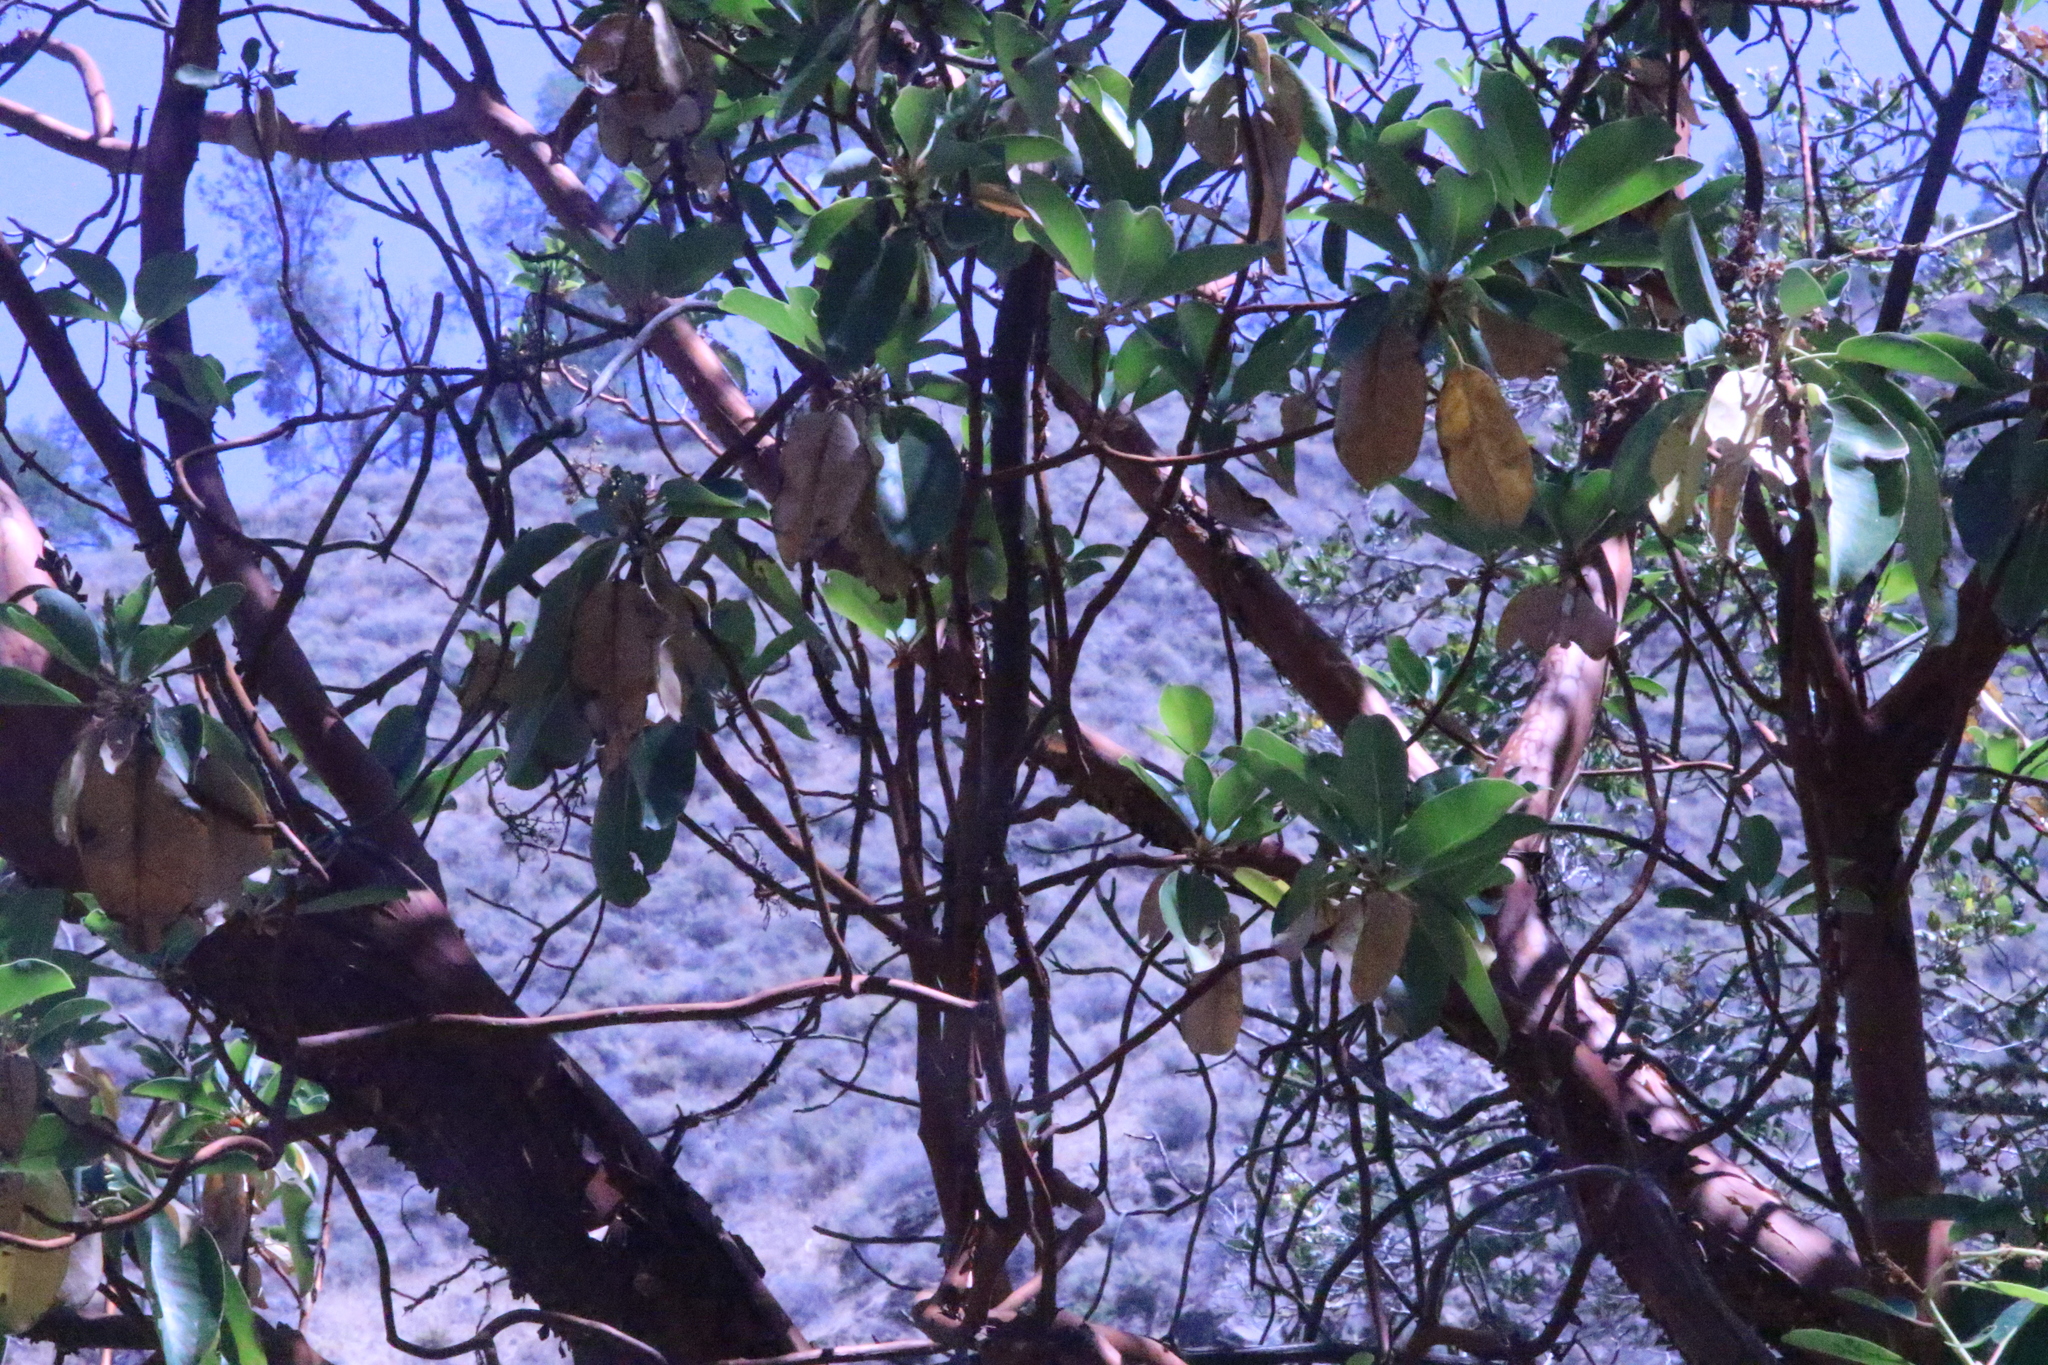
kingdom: Plantae
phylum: Tracheophyta
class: Magnoliopsida
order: Ericales
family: Ericaceae
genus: Arbutus
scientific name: Arbutus menziesii
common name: Pacific madrone
